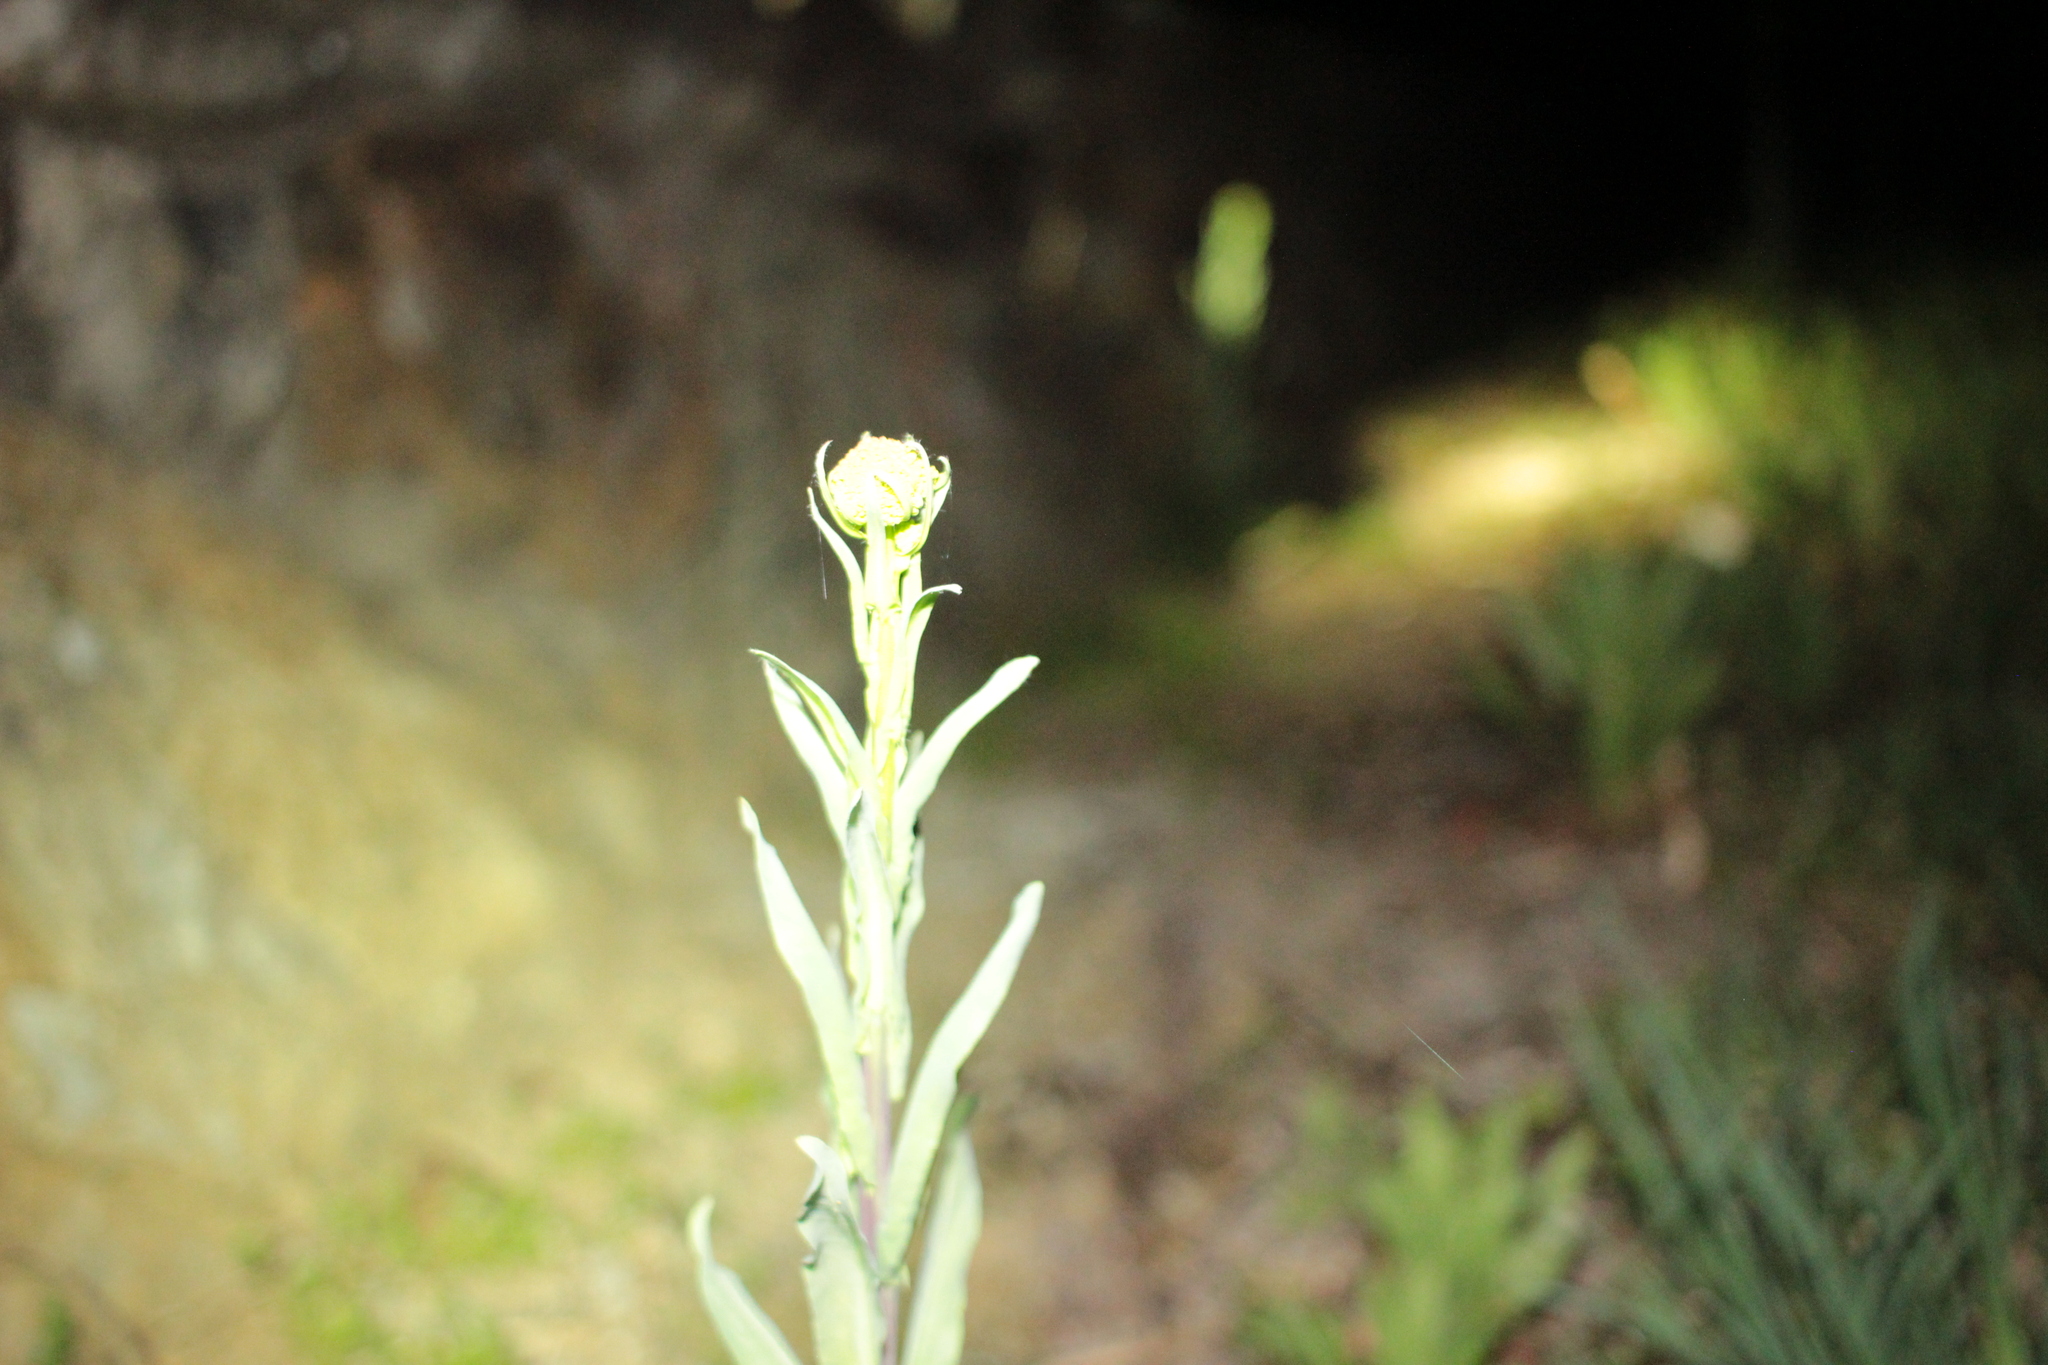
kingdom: Plantae
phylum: Tracheophyta
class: Magnoliopsida
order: Brassicales
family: Brassicaceae
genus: Isatis
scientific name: Isatis tinctoria
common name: Woad
